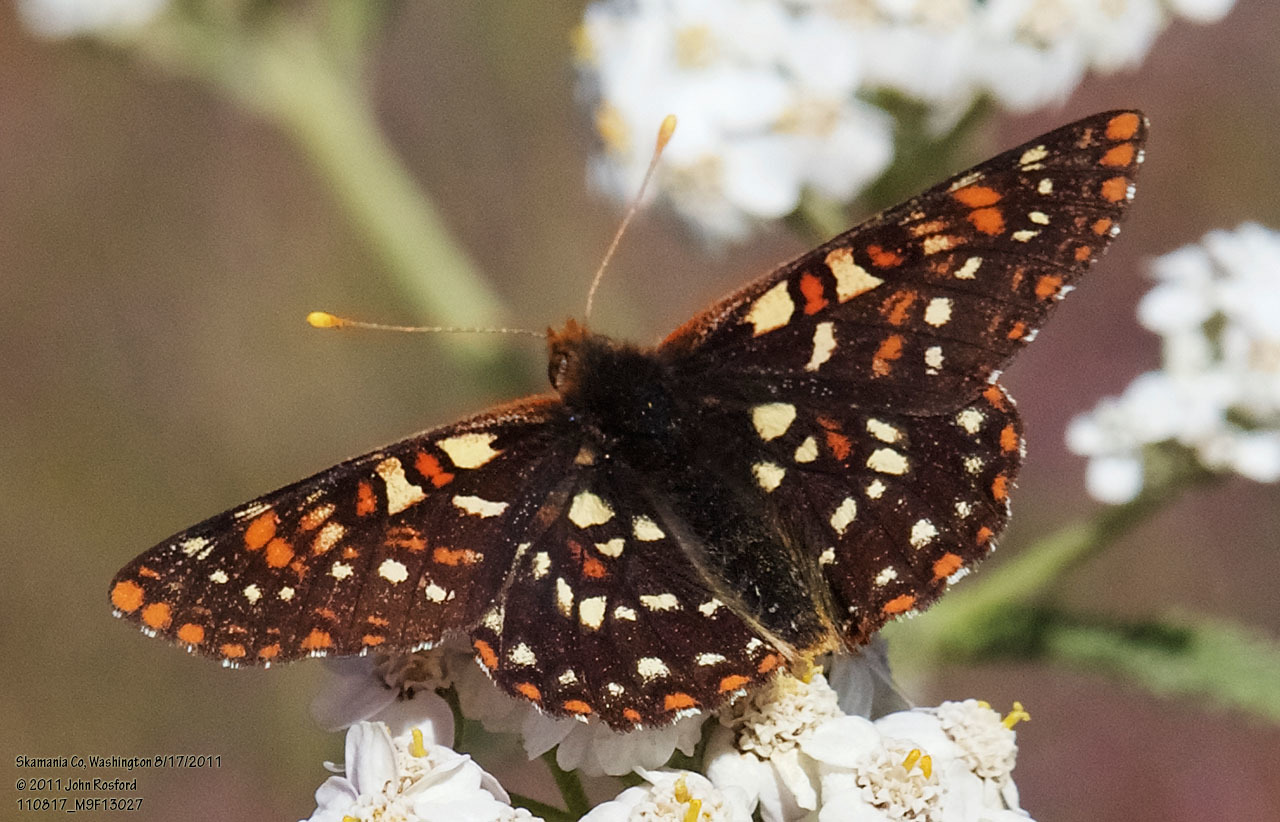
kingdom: Animalia
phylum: Arthropoda
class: Insecta
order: Lepidoptera
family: Nymphalidae
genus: Occidryas
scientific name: Occidryas colon
